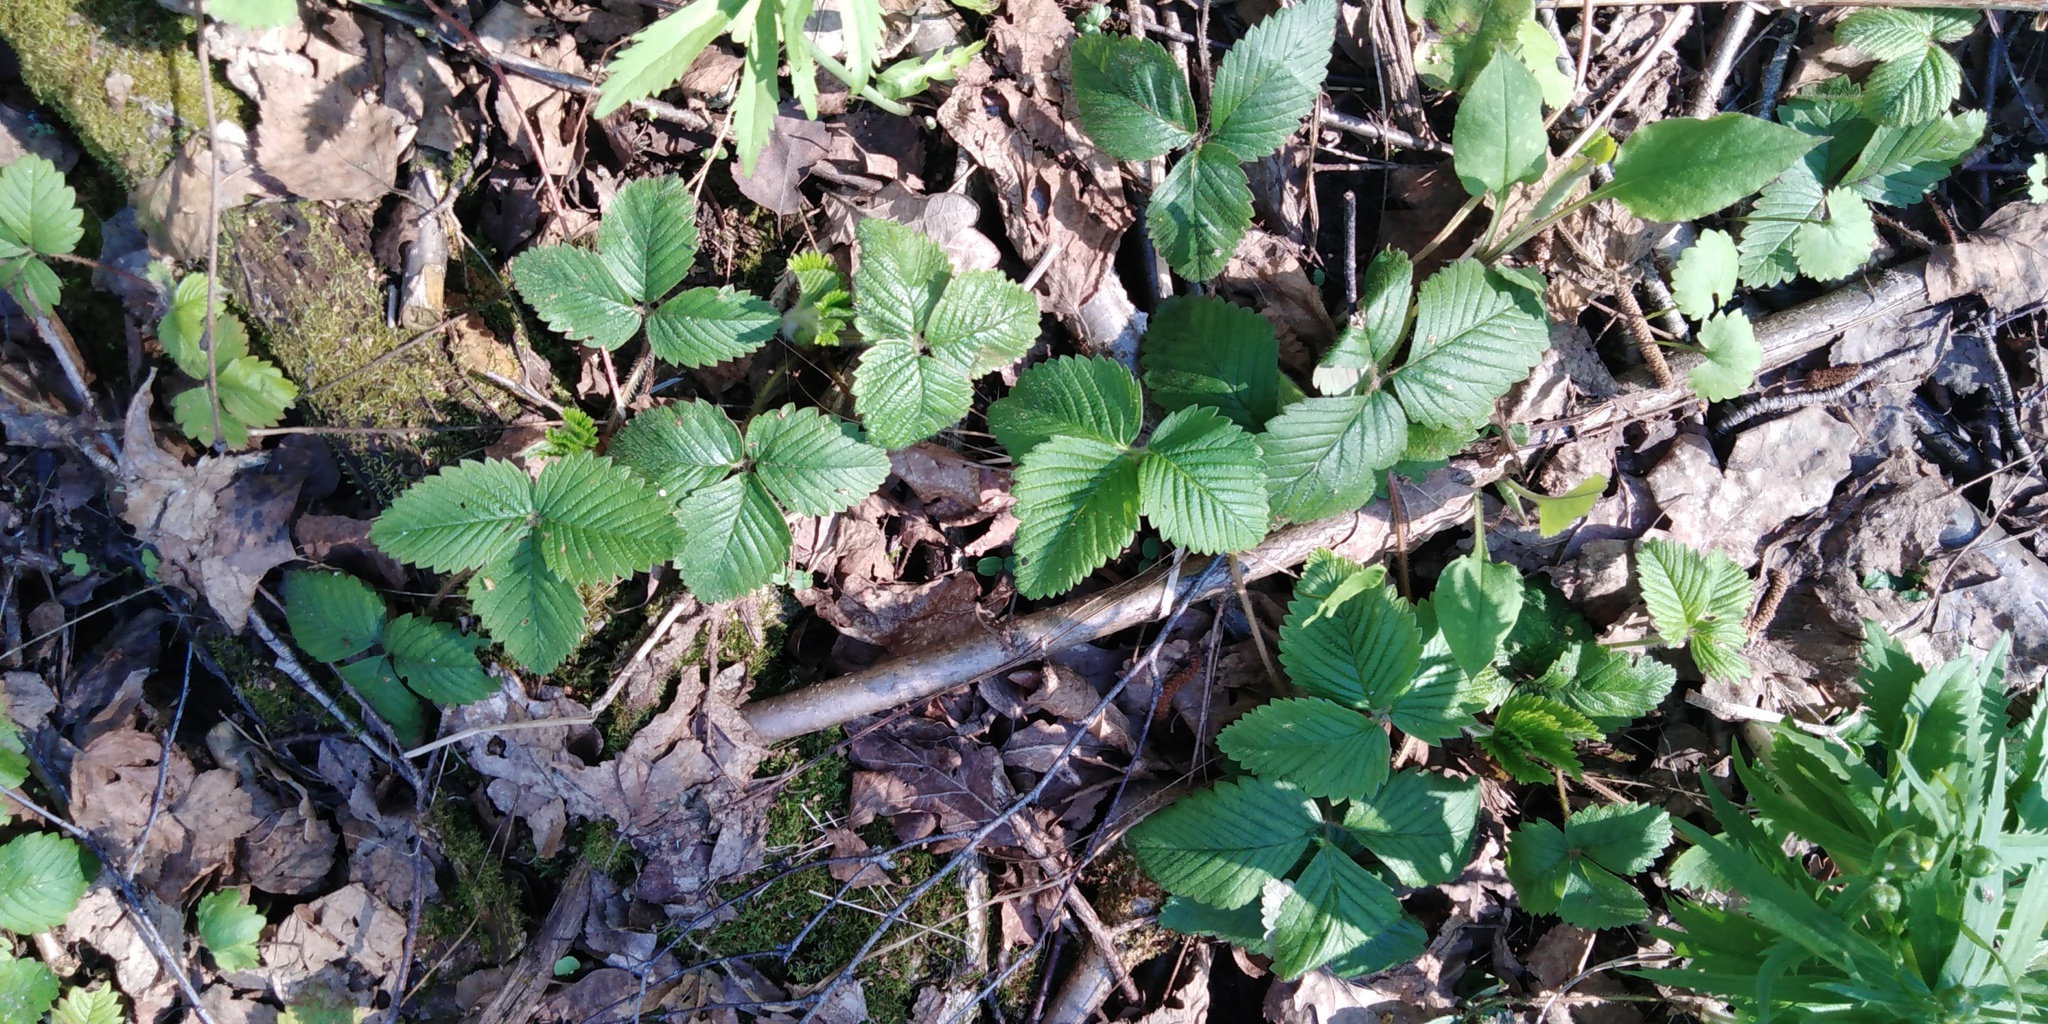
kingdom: Plantae
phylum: Tracheophyta
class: Magnoliopsida
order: Rosales
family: Rosaceae
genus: Fragaria
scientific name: Fragaria ananassa
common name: Garden strawberry
